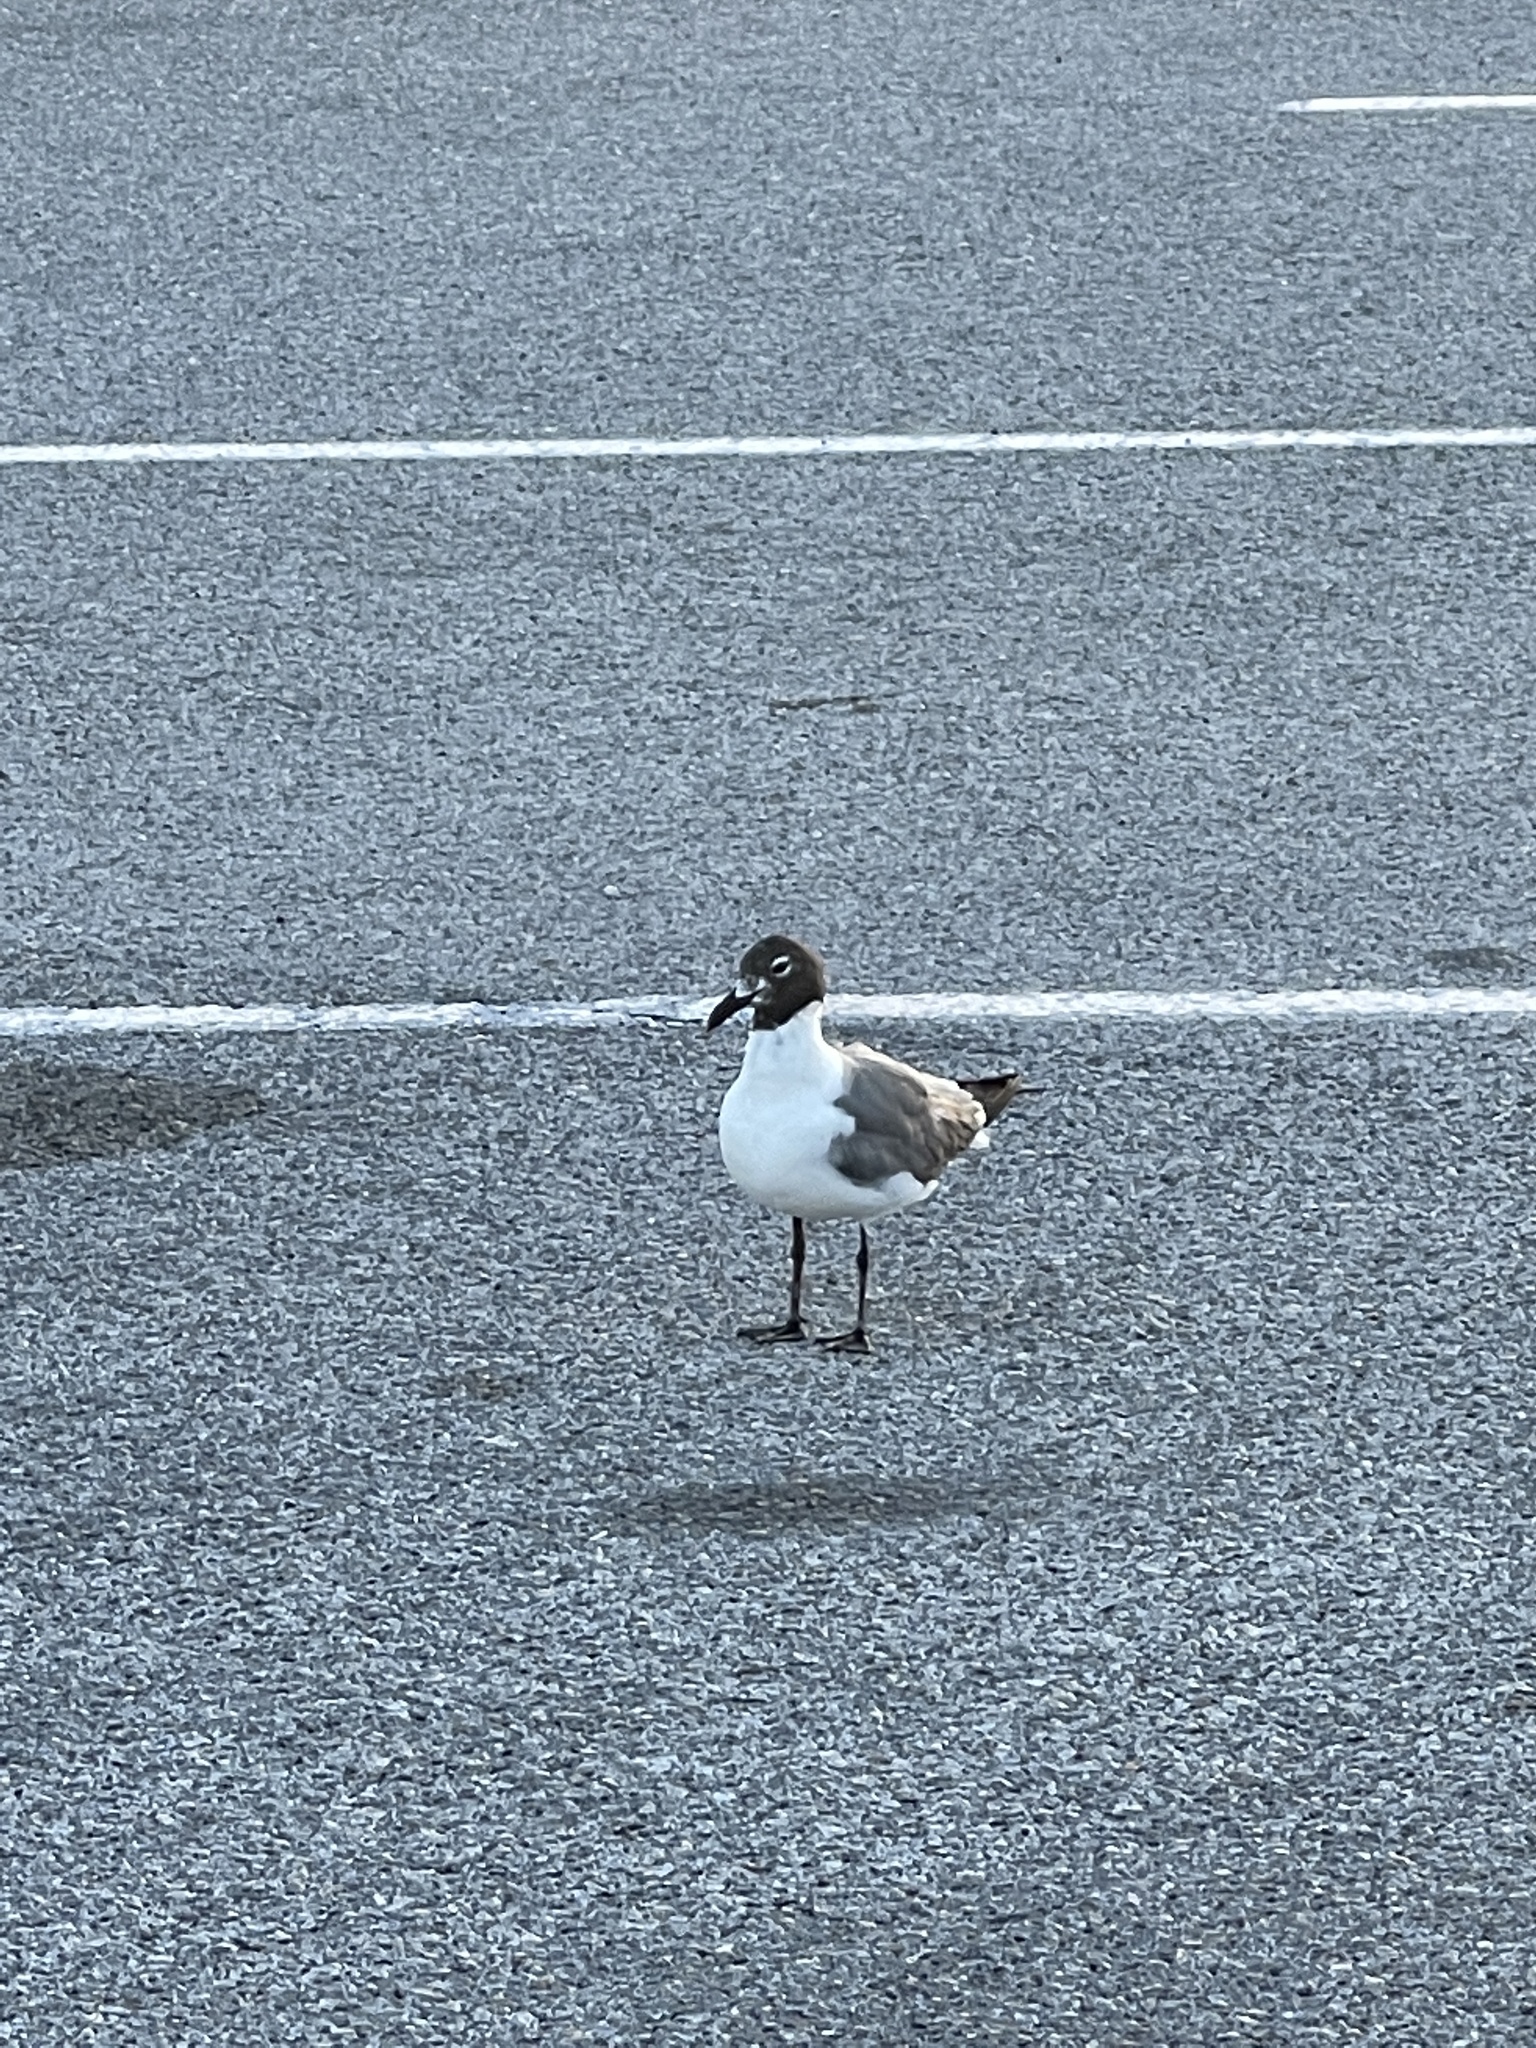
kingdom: Animalia
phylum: Chordata
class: Aves
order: Charadriiformes
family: Laridae
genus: Leucophaeus
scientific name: Leucophaeus atricilla
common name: Laughing gull
